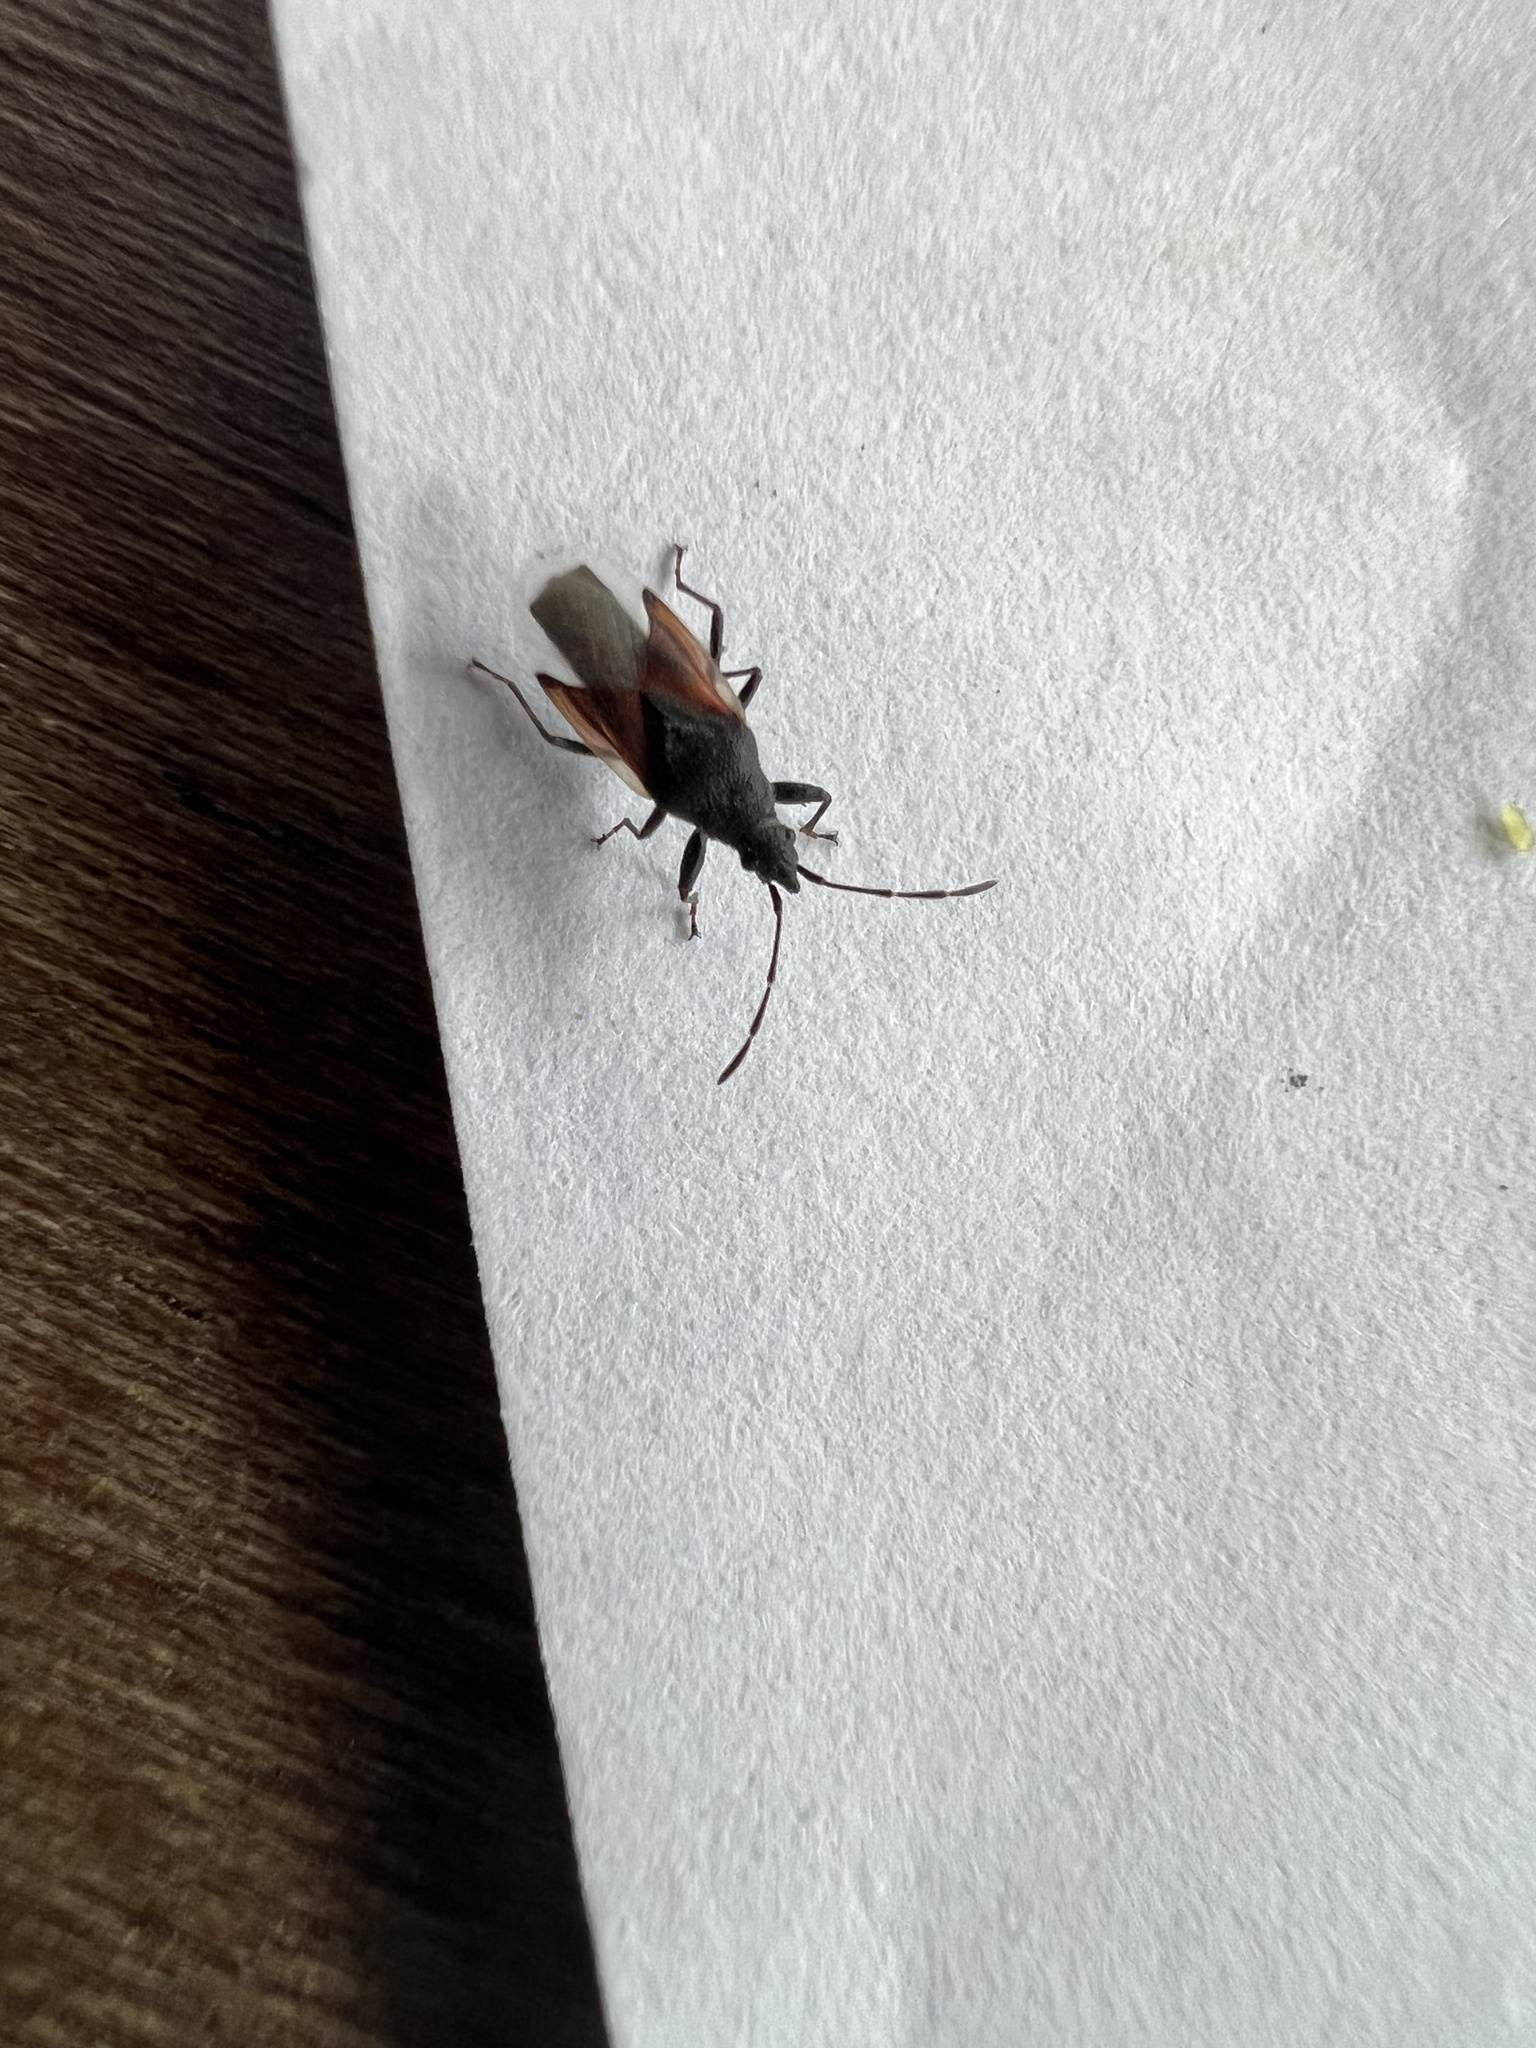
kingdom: Animalia
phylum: Arthropoda
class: Insecta
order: Hemiptera
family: Oxycarenidae
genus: Oxycarenus
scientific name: Oxycarenus lavaterae
